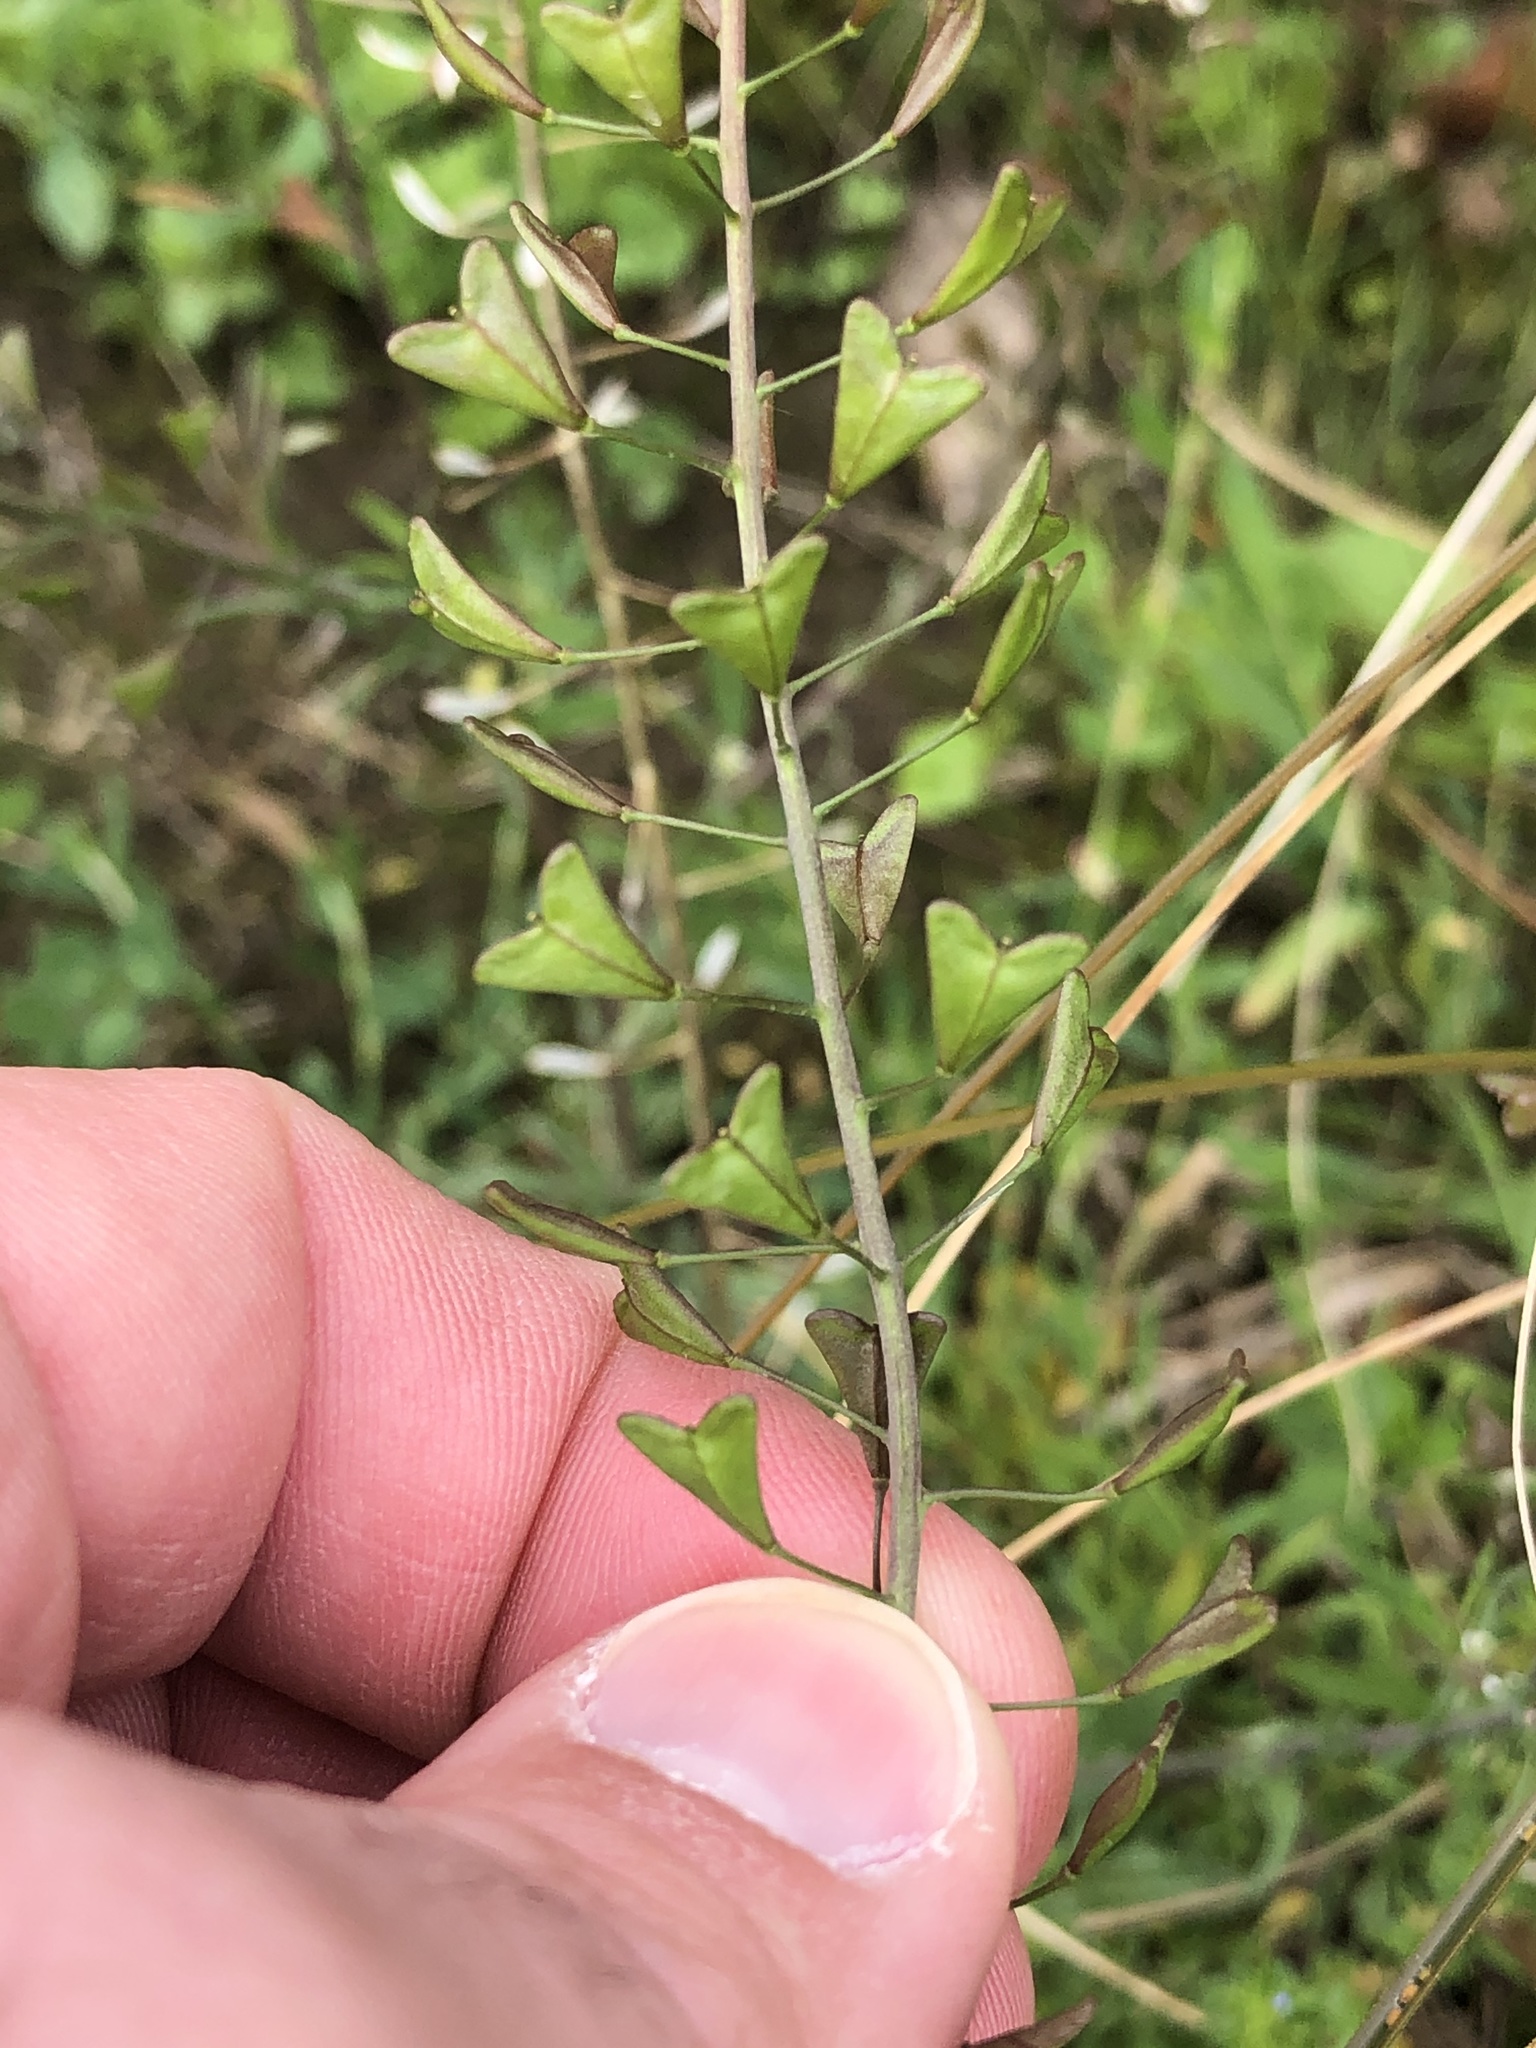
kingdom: Plantae
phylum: Tracheophyta
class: Magnoliopsida
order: Brassicales
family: Brassicaceae
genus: Capsella
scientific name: Capsella bursa-pastoris
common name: Shepherd's purse
